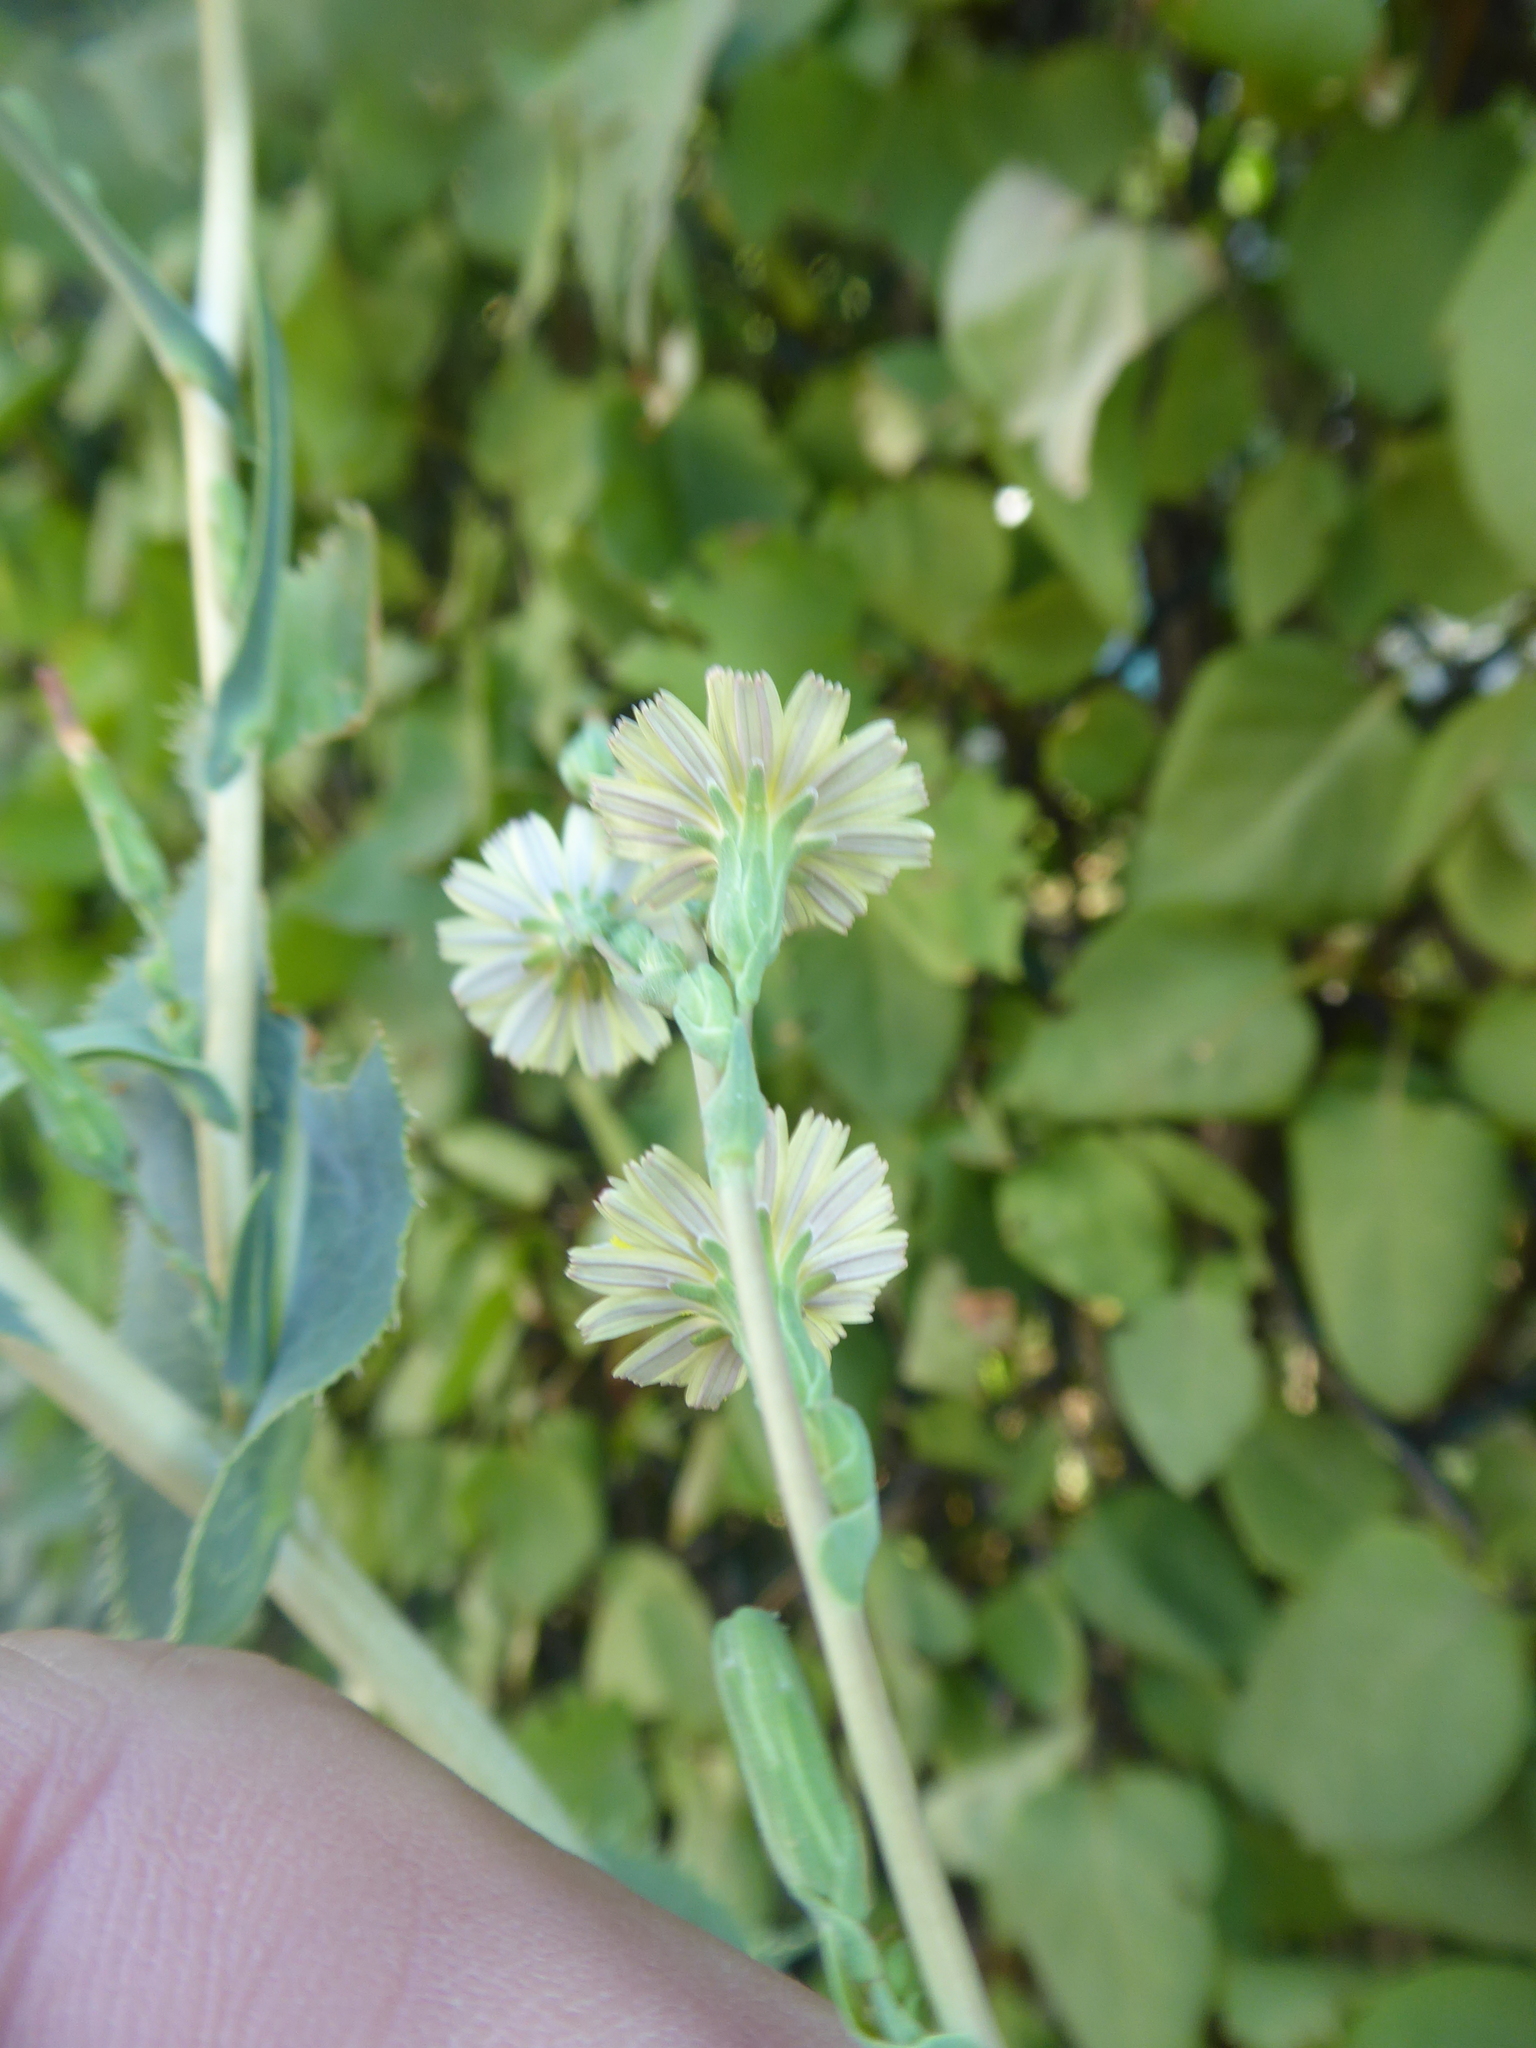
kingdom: Plantae
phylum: Tracheophyta
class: Magnoliopsida
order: Asterales
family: Asteraceae
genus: Lactuca
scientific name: Lactuca serriola
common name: Prickly lettuce
